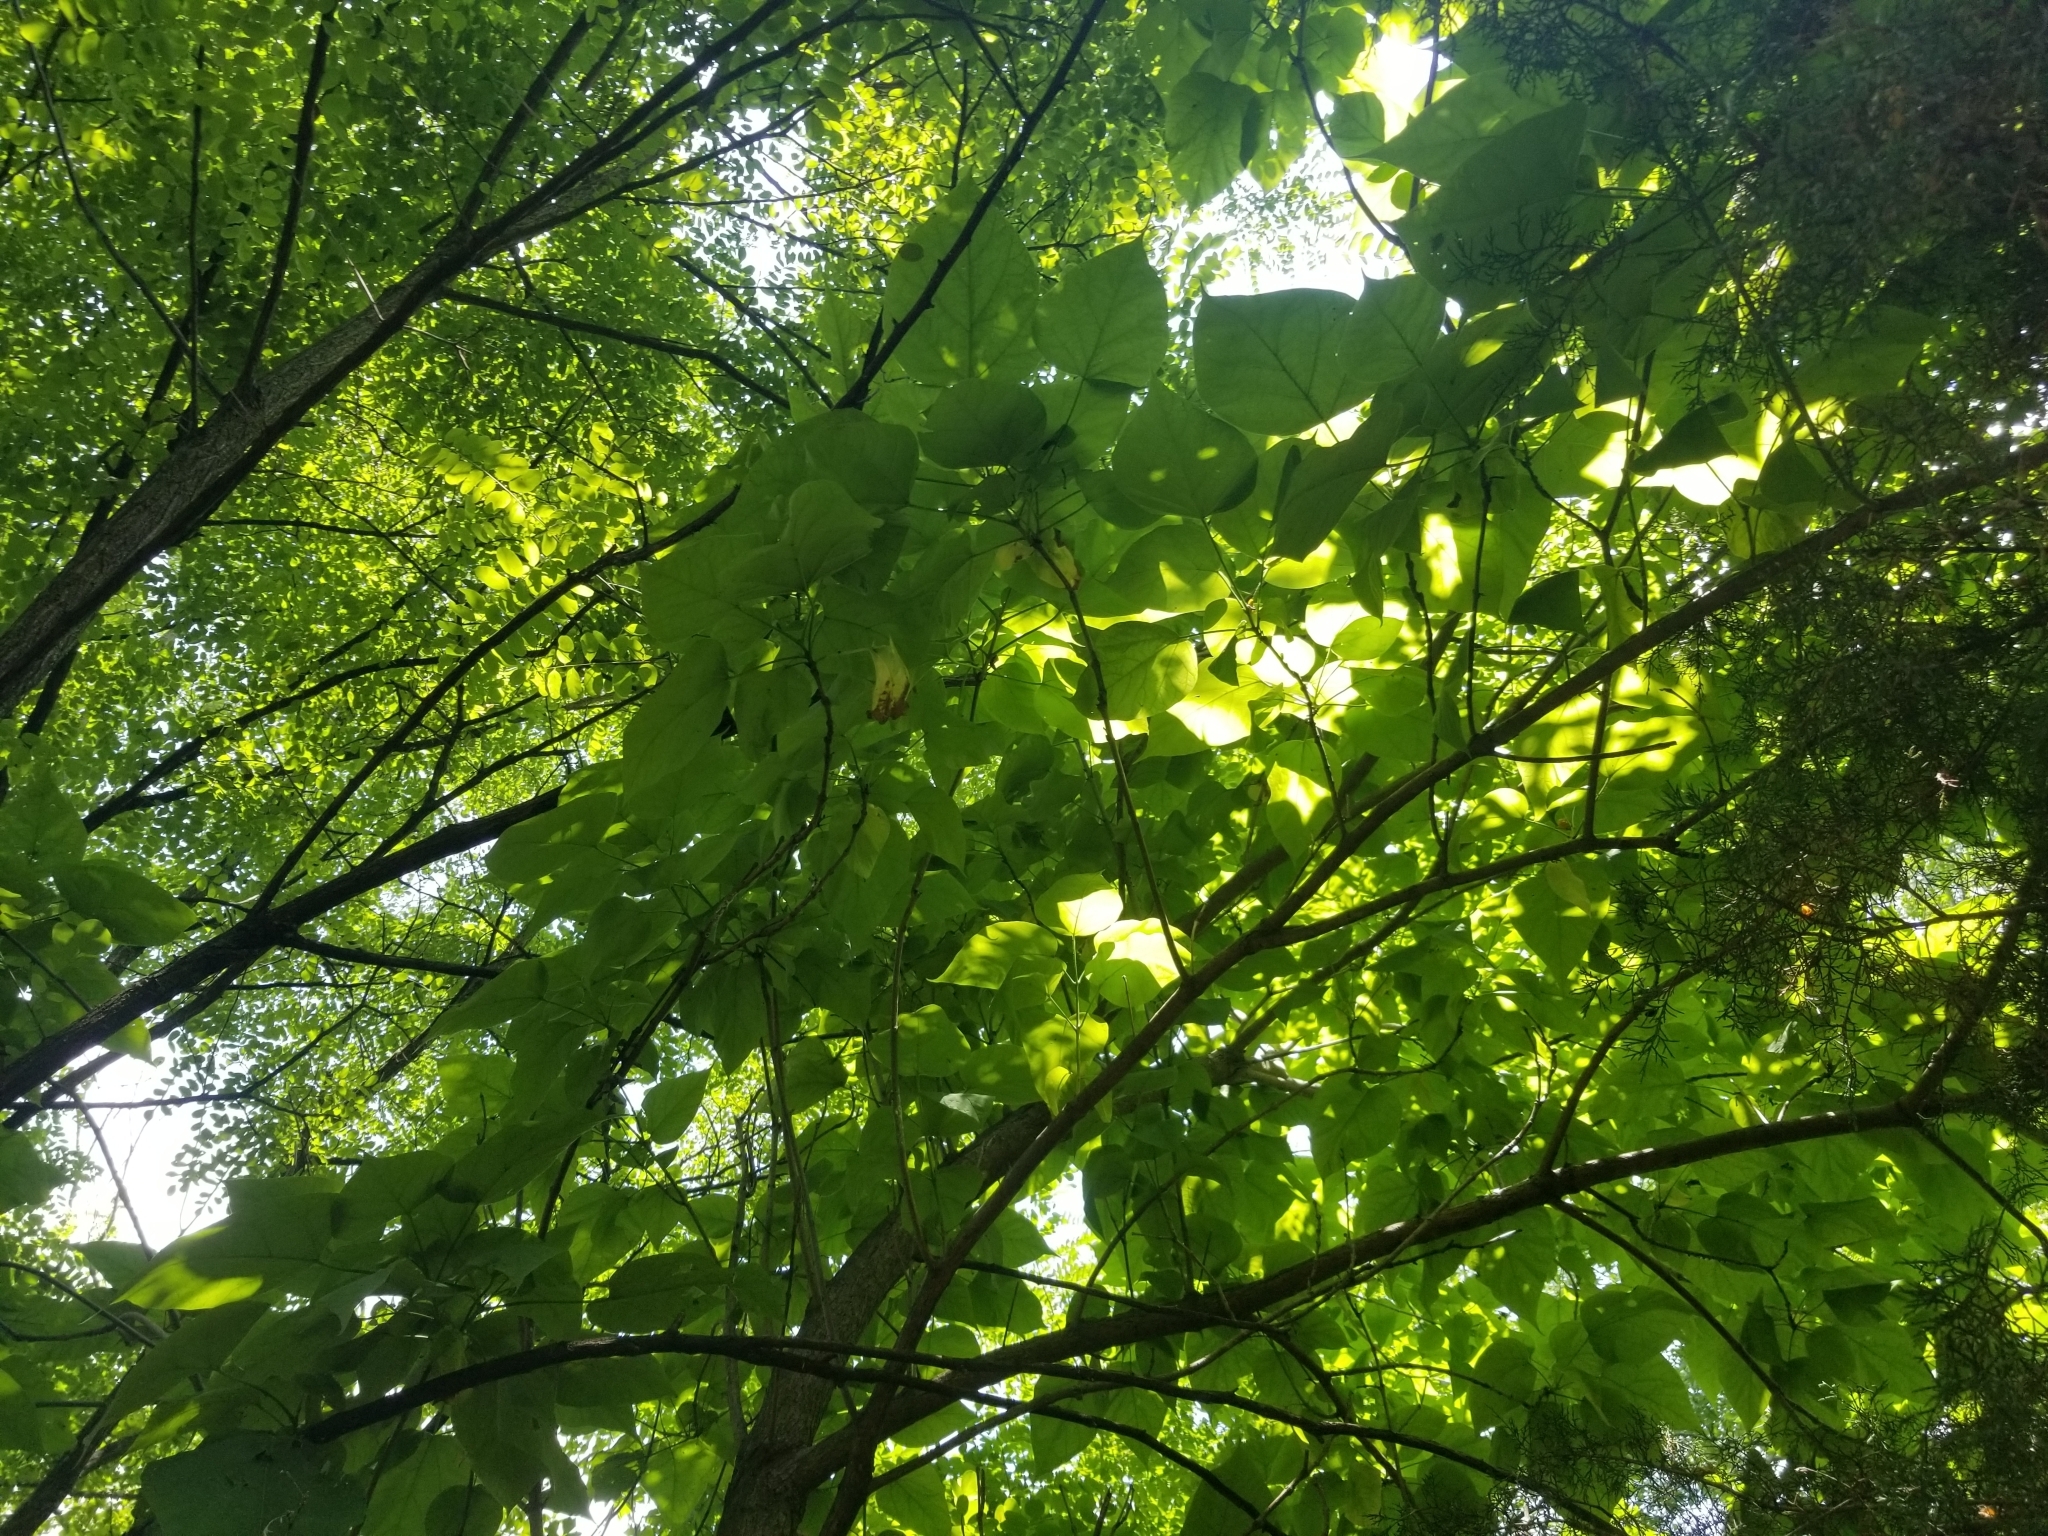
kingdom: Plantae
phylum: Tracheophyta
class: Magnoliopsida
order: Lamiales
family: Bignoniaceae
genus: Catalpa
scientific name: Catalpa speciosa
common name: Northern catalpa
